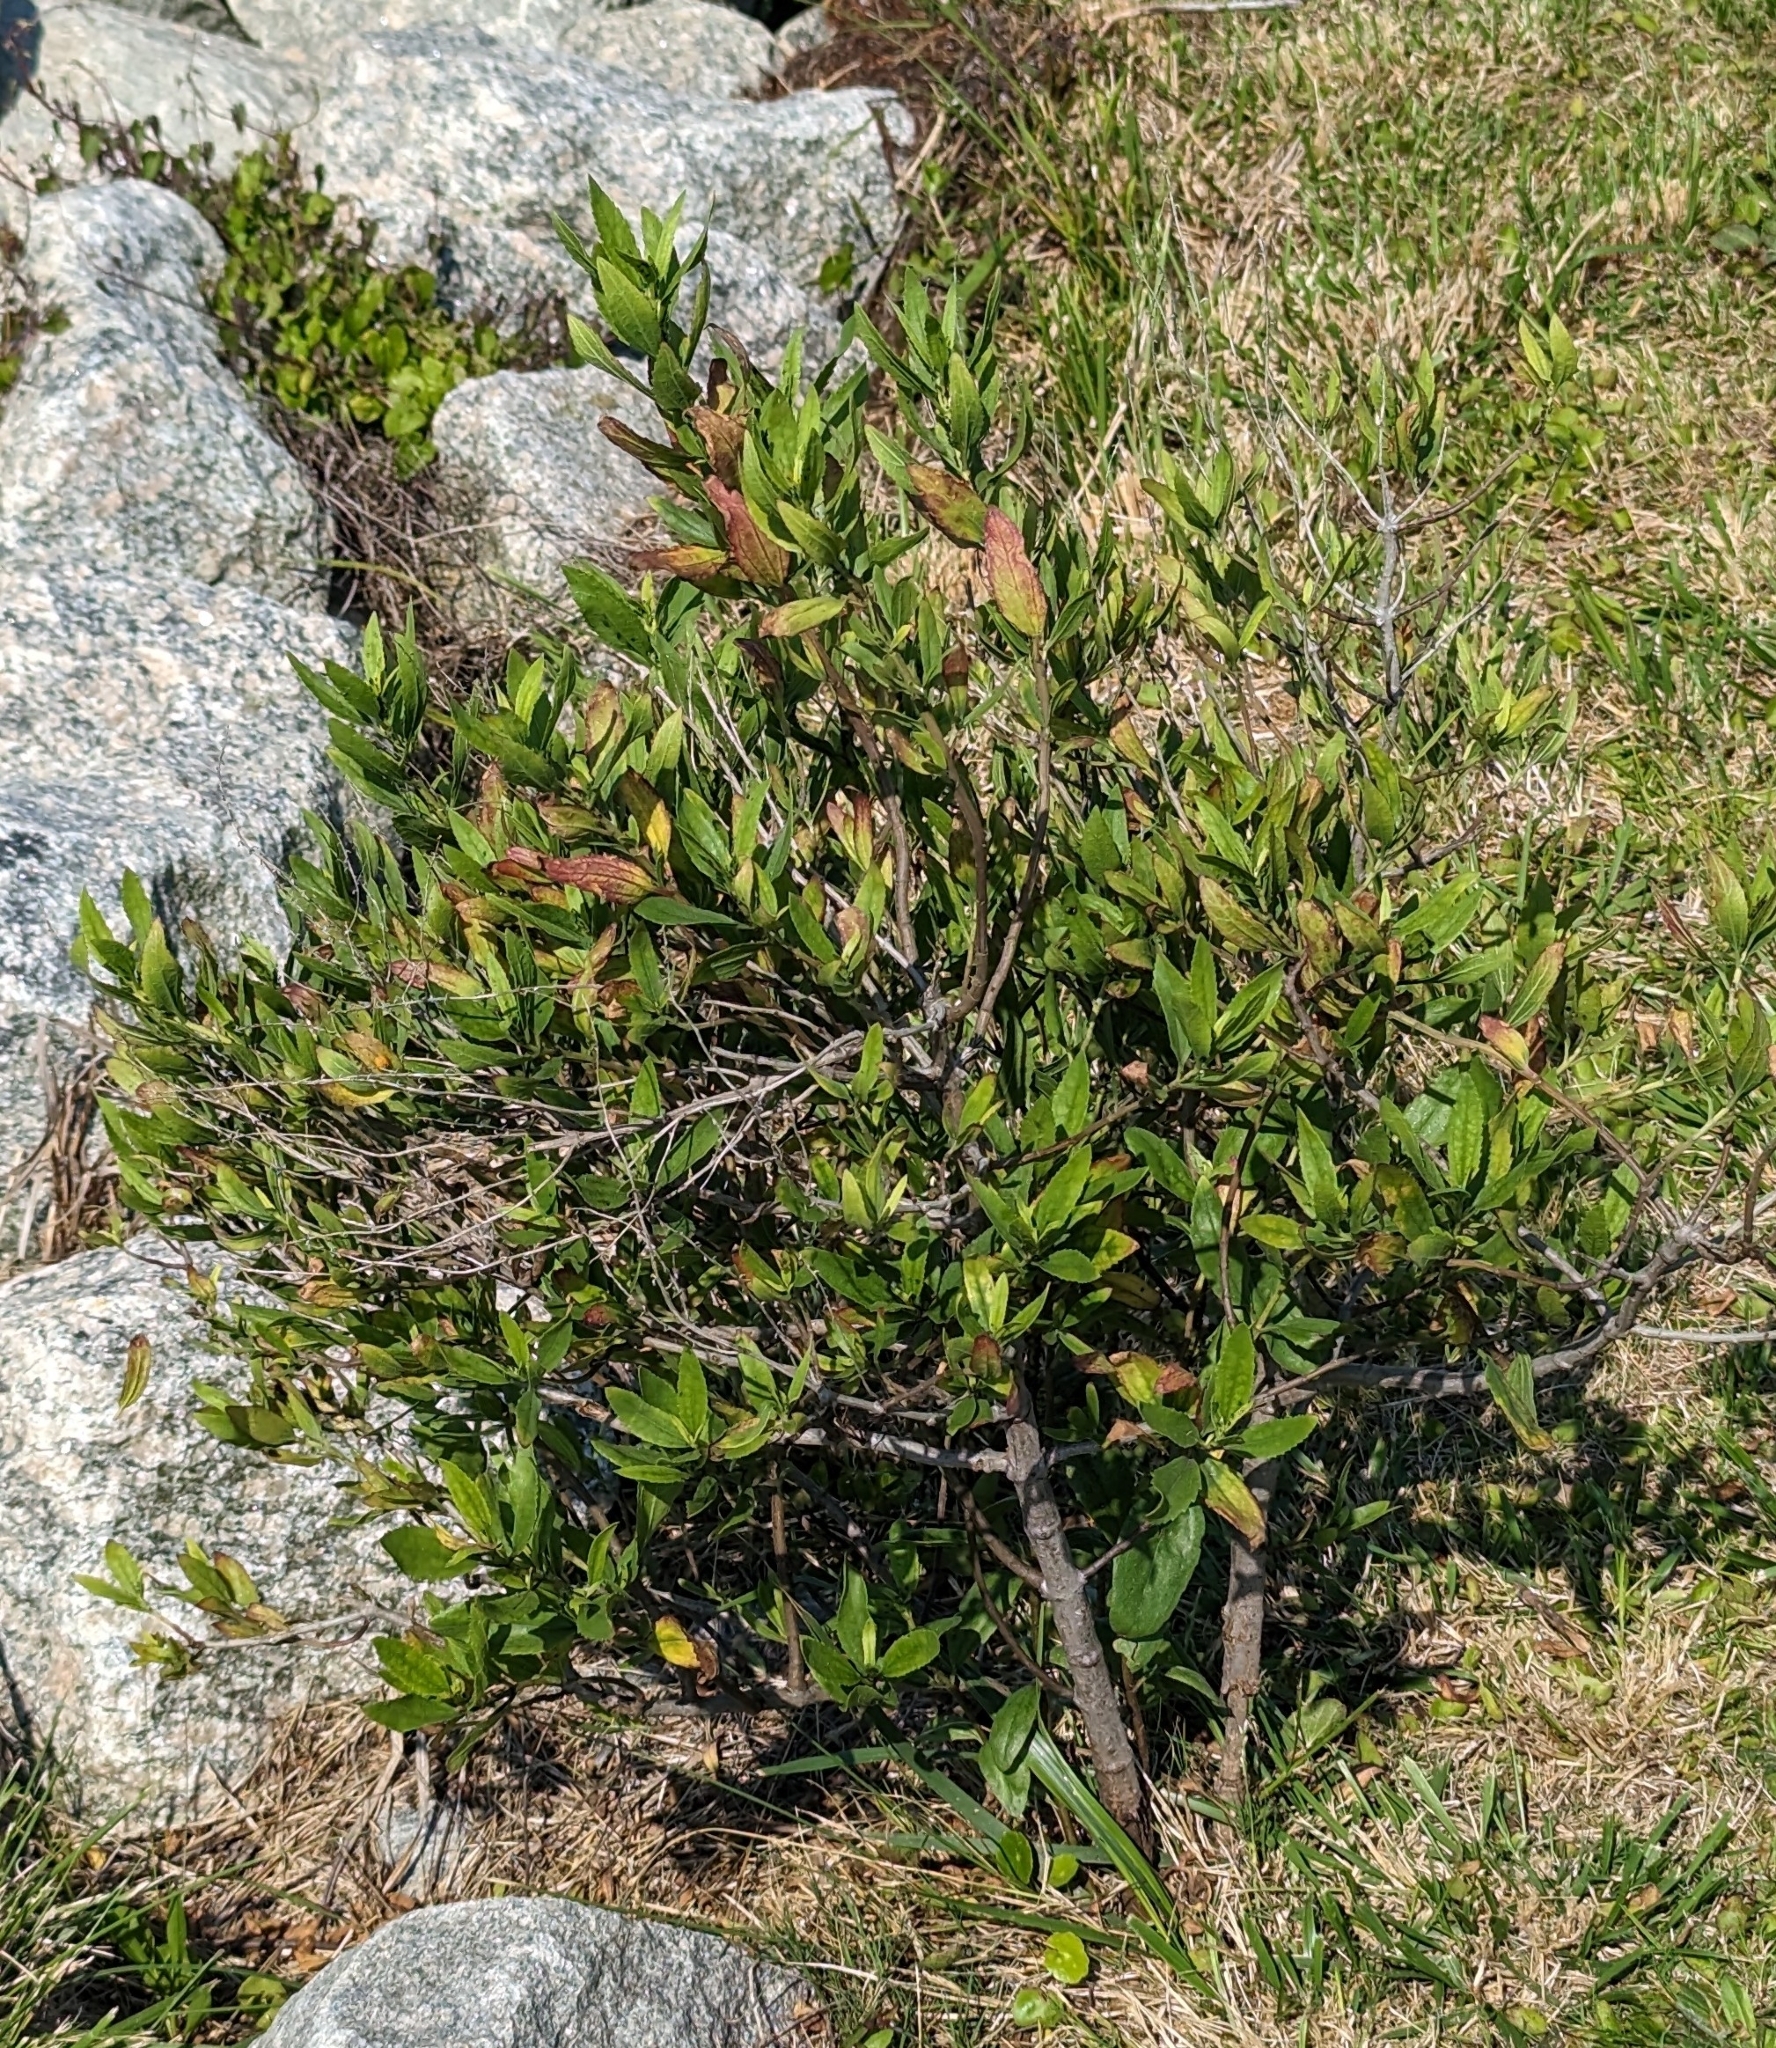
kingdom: Plantae
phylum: Tracheophyta
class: Magnoliopsida
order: Asterales
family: Asteraceae
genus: Iva
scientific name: Iva frutescens
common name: Big-leaved marsh-elder
